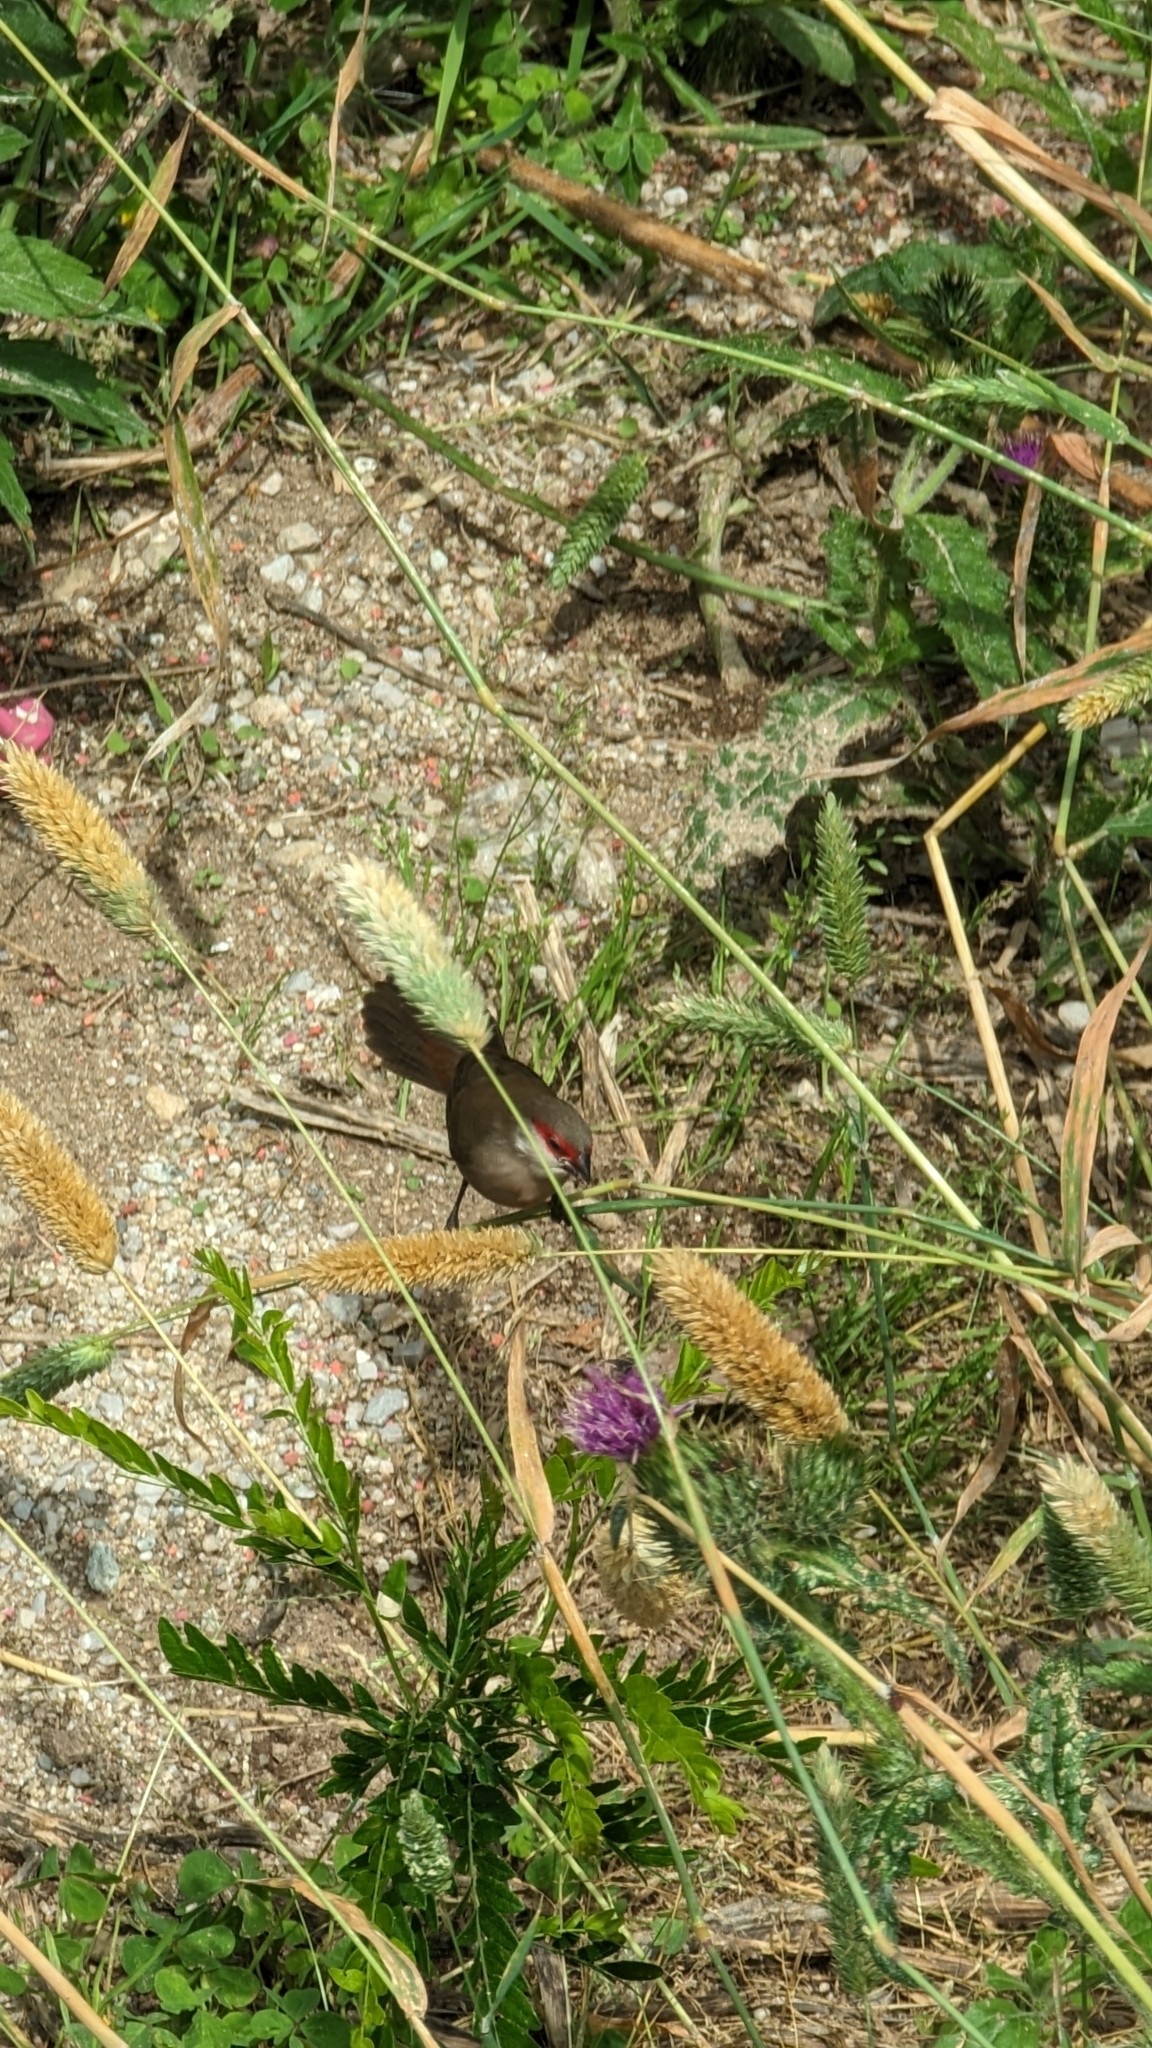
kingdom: Animalia
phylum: Chordata
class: Aves
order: Passeriformes
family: Estrildidae
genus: Estrilda
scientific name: Estrilda astrild
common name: Common waxbill
